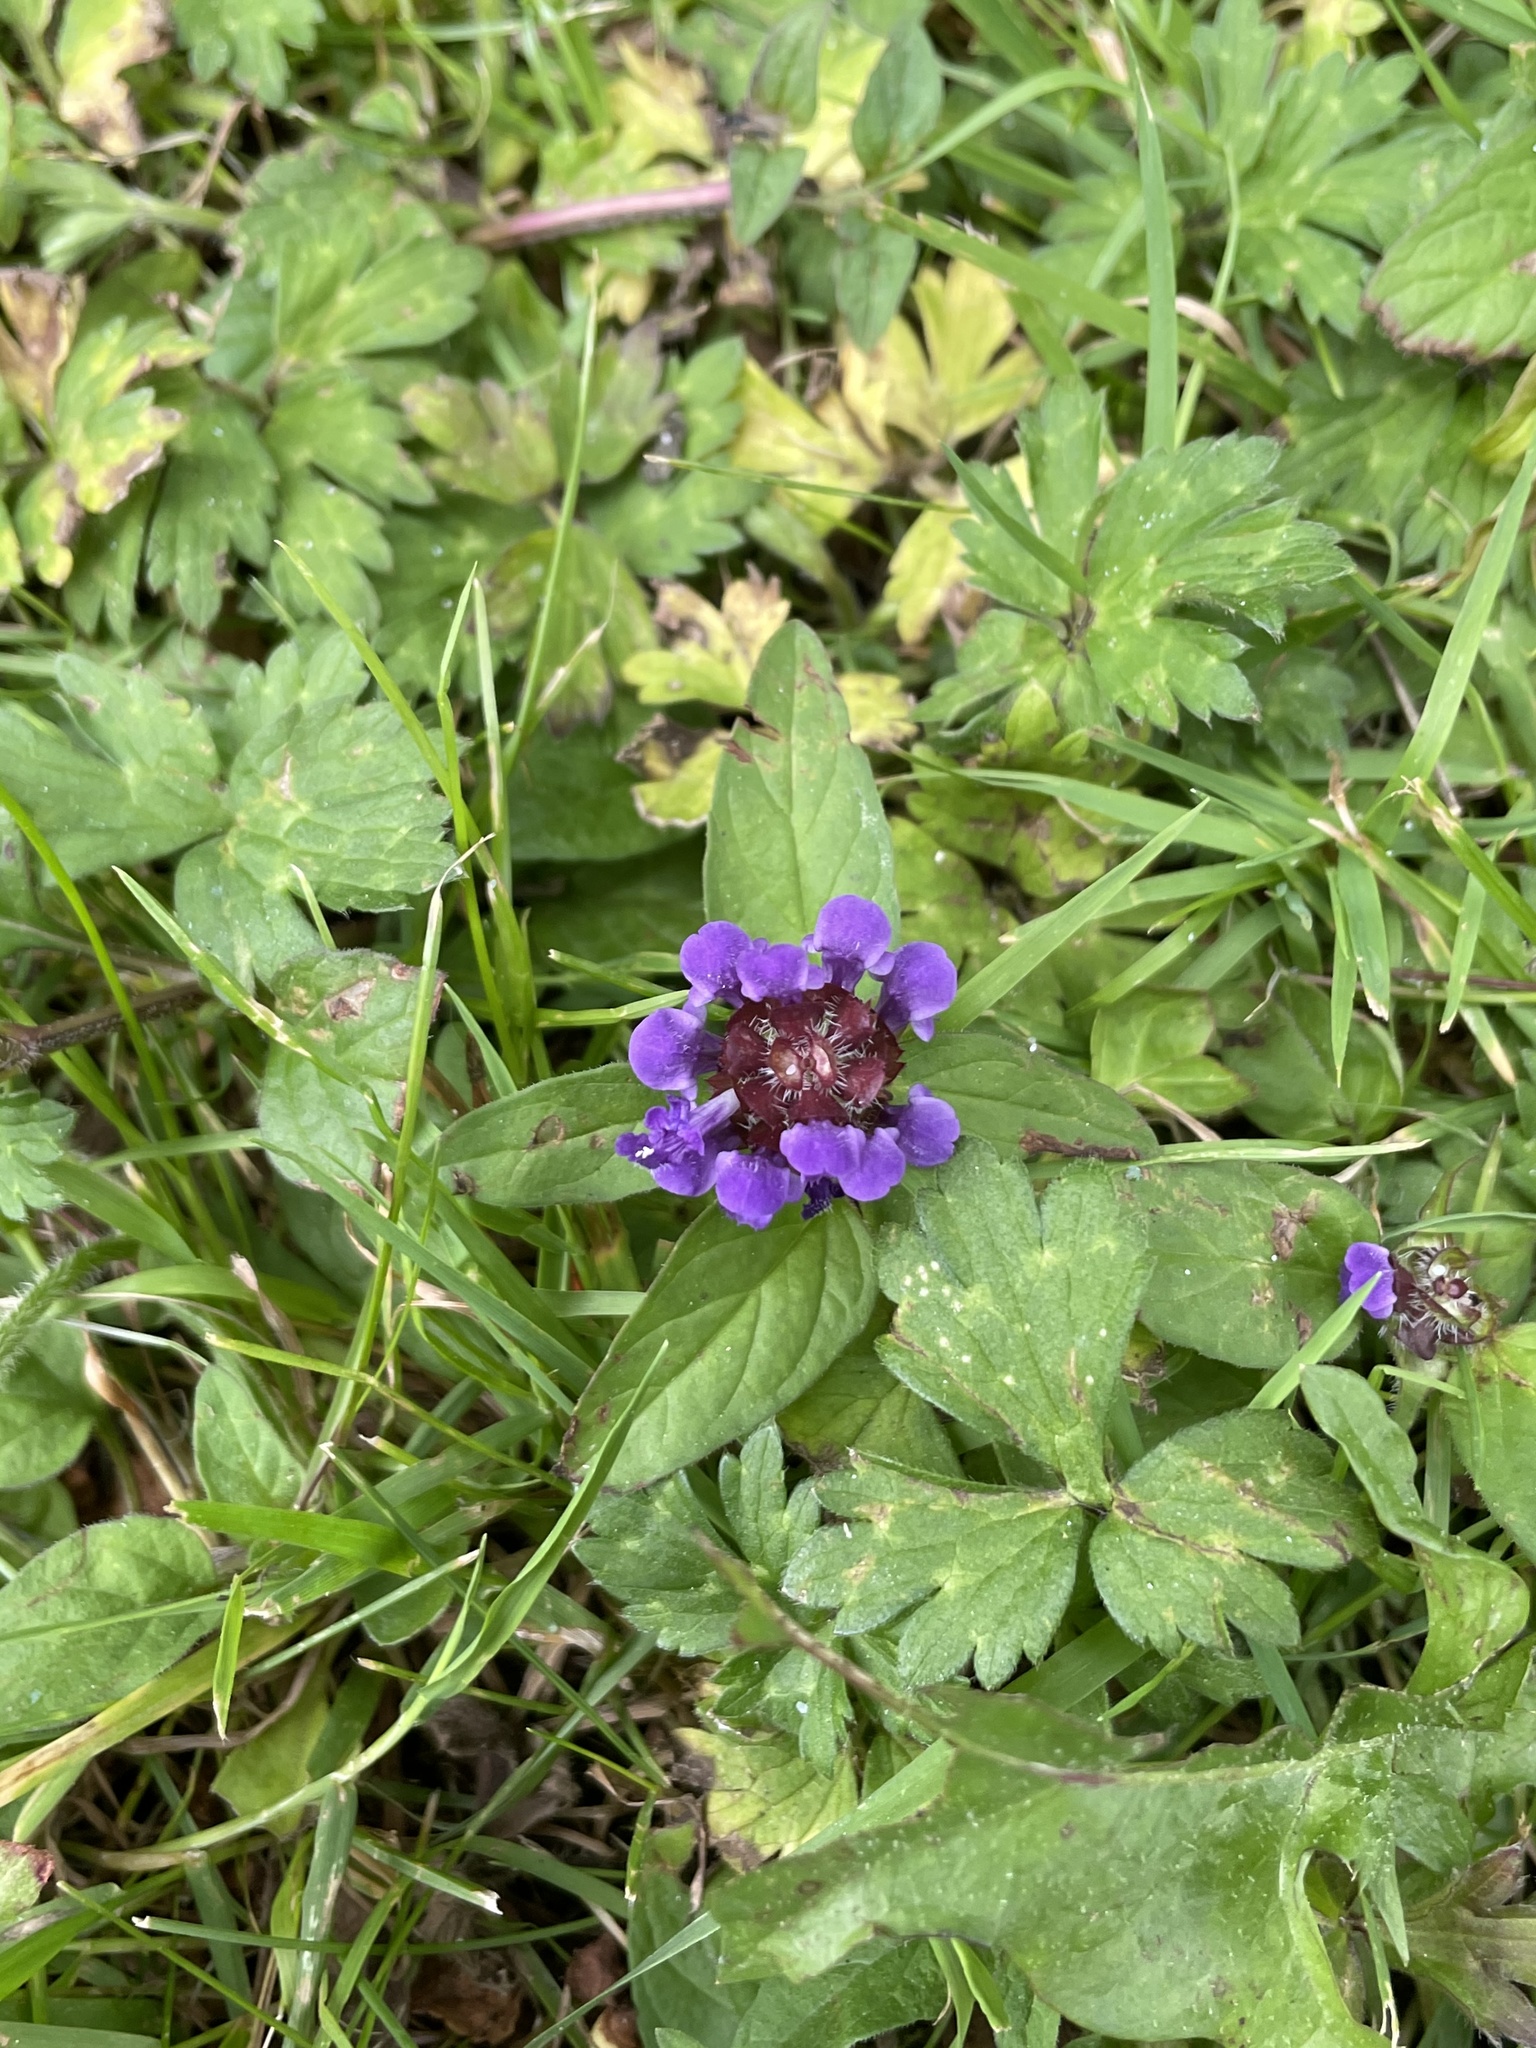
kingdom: Plantae
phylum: Tracheophyta
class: Magnoliopsida
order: Lamiales
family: Lamiaceae
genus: Prunella
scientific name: Prunella vulgaris
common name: Heal-all
